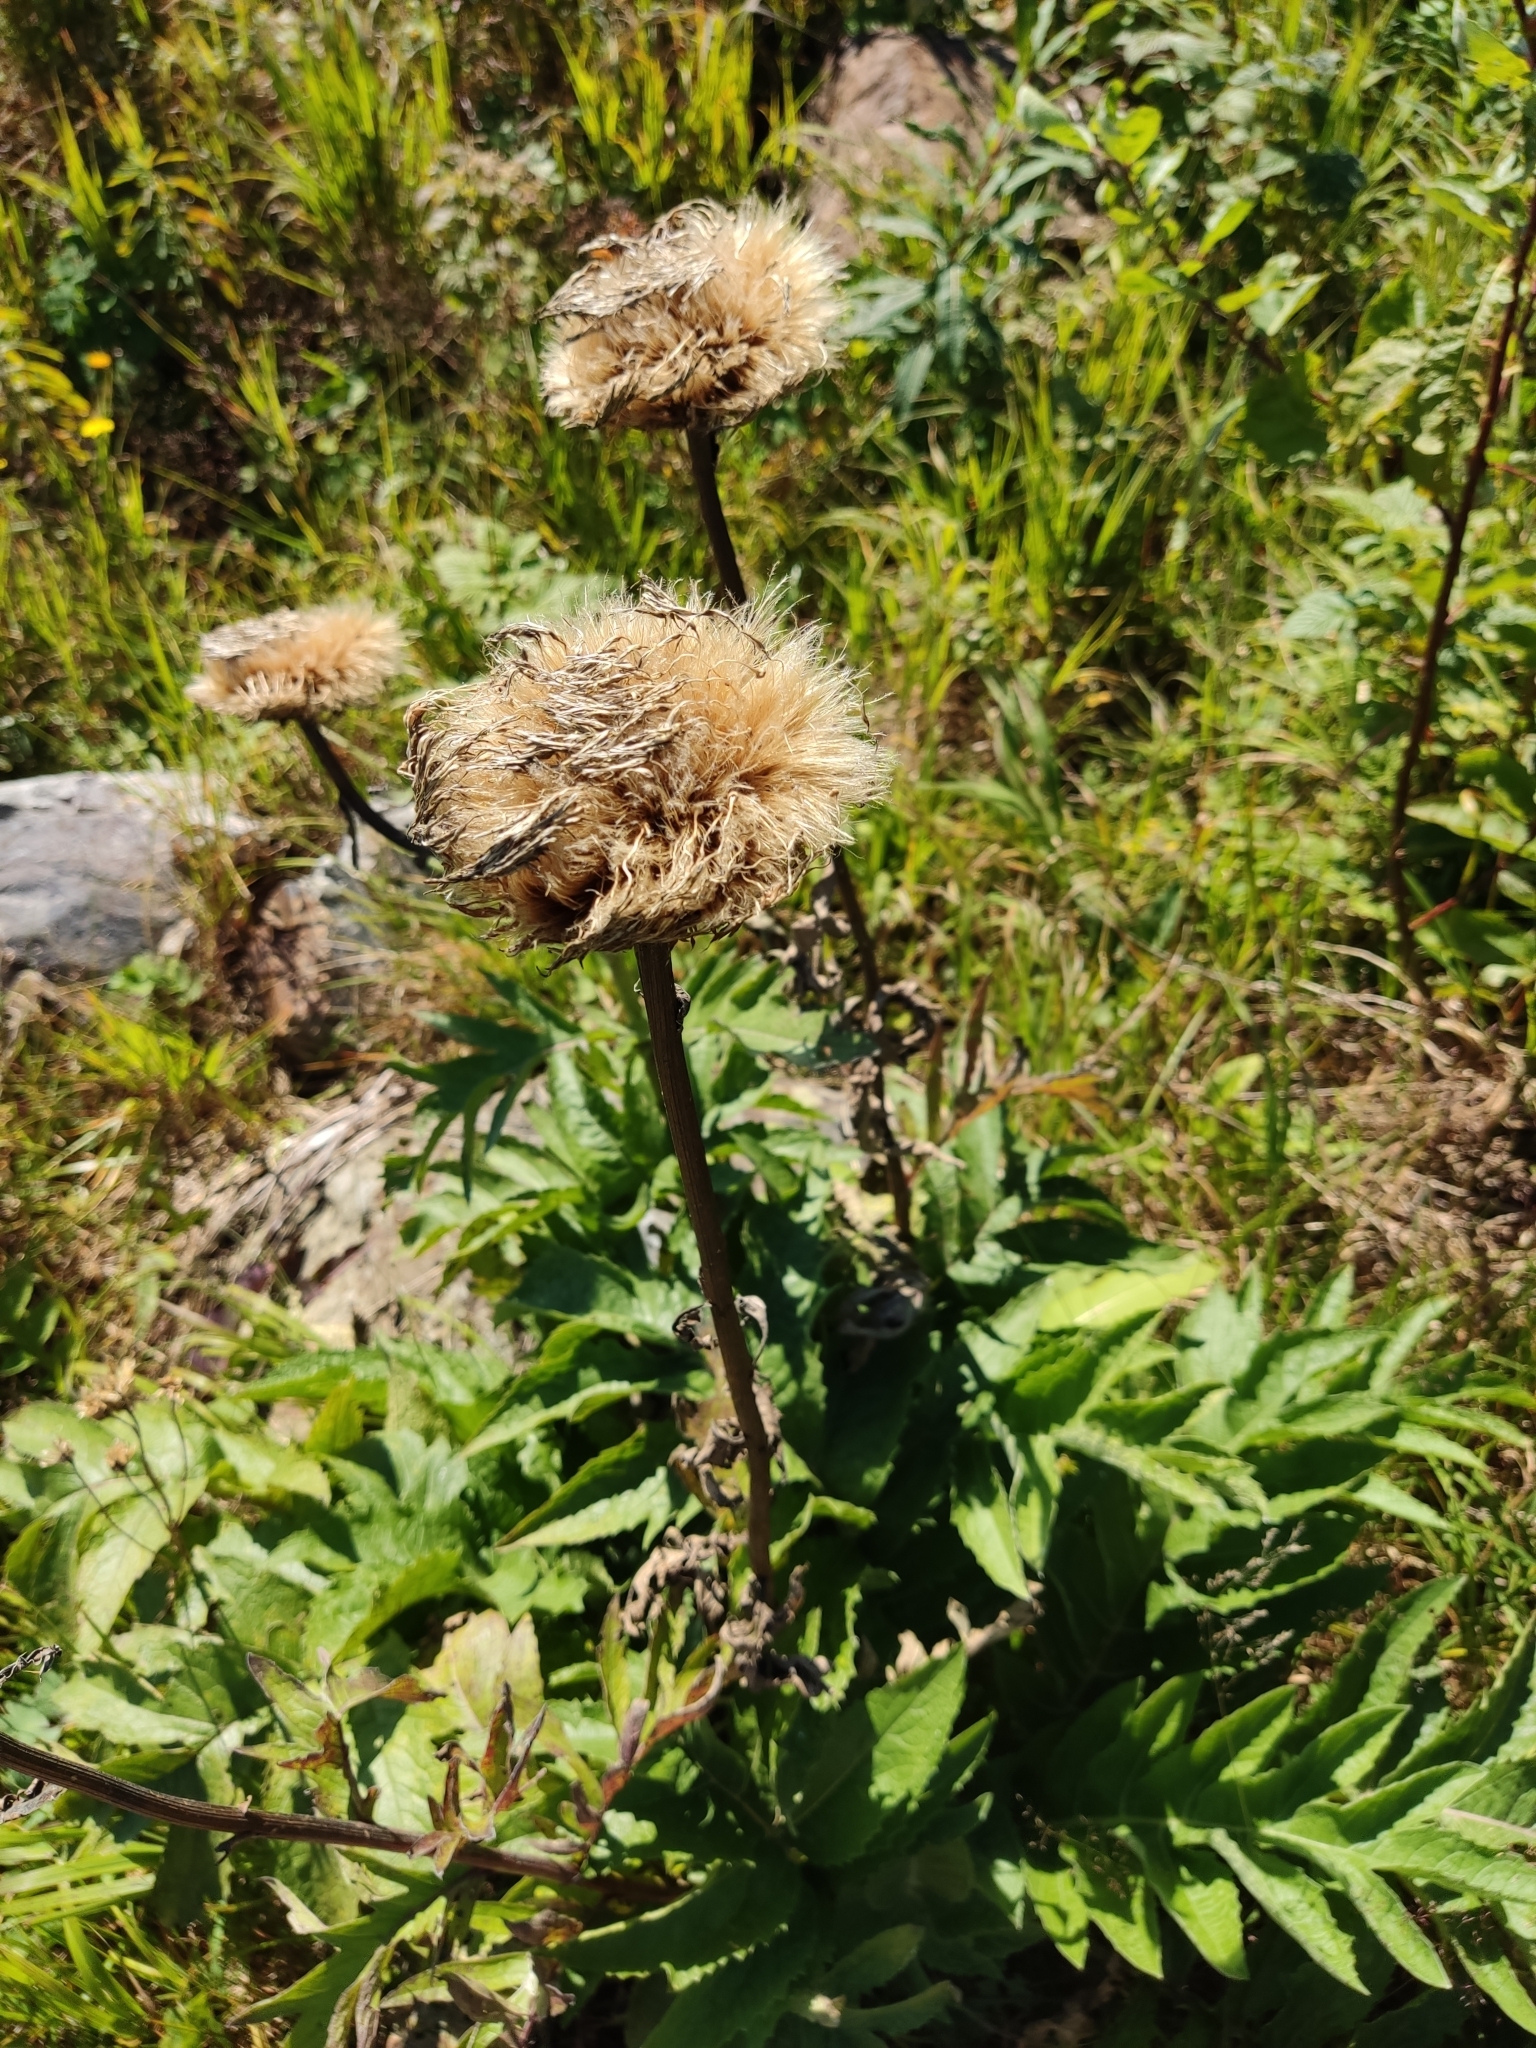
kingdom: Plantae
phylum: Tracheophyta
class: Magnoliopsida
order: Asterales
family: Asteraceae
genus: Leuzea
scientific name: Leuzea carthamoides
